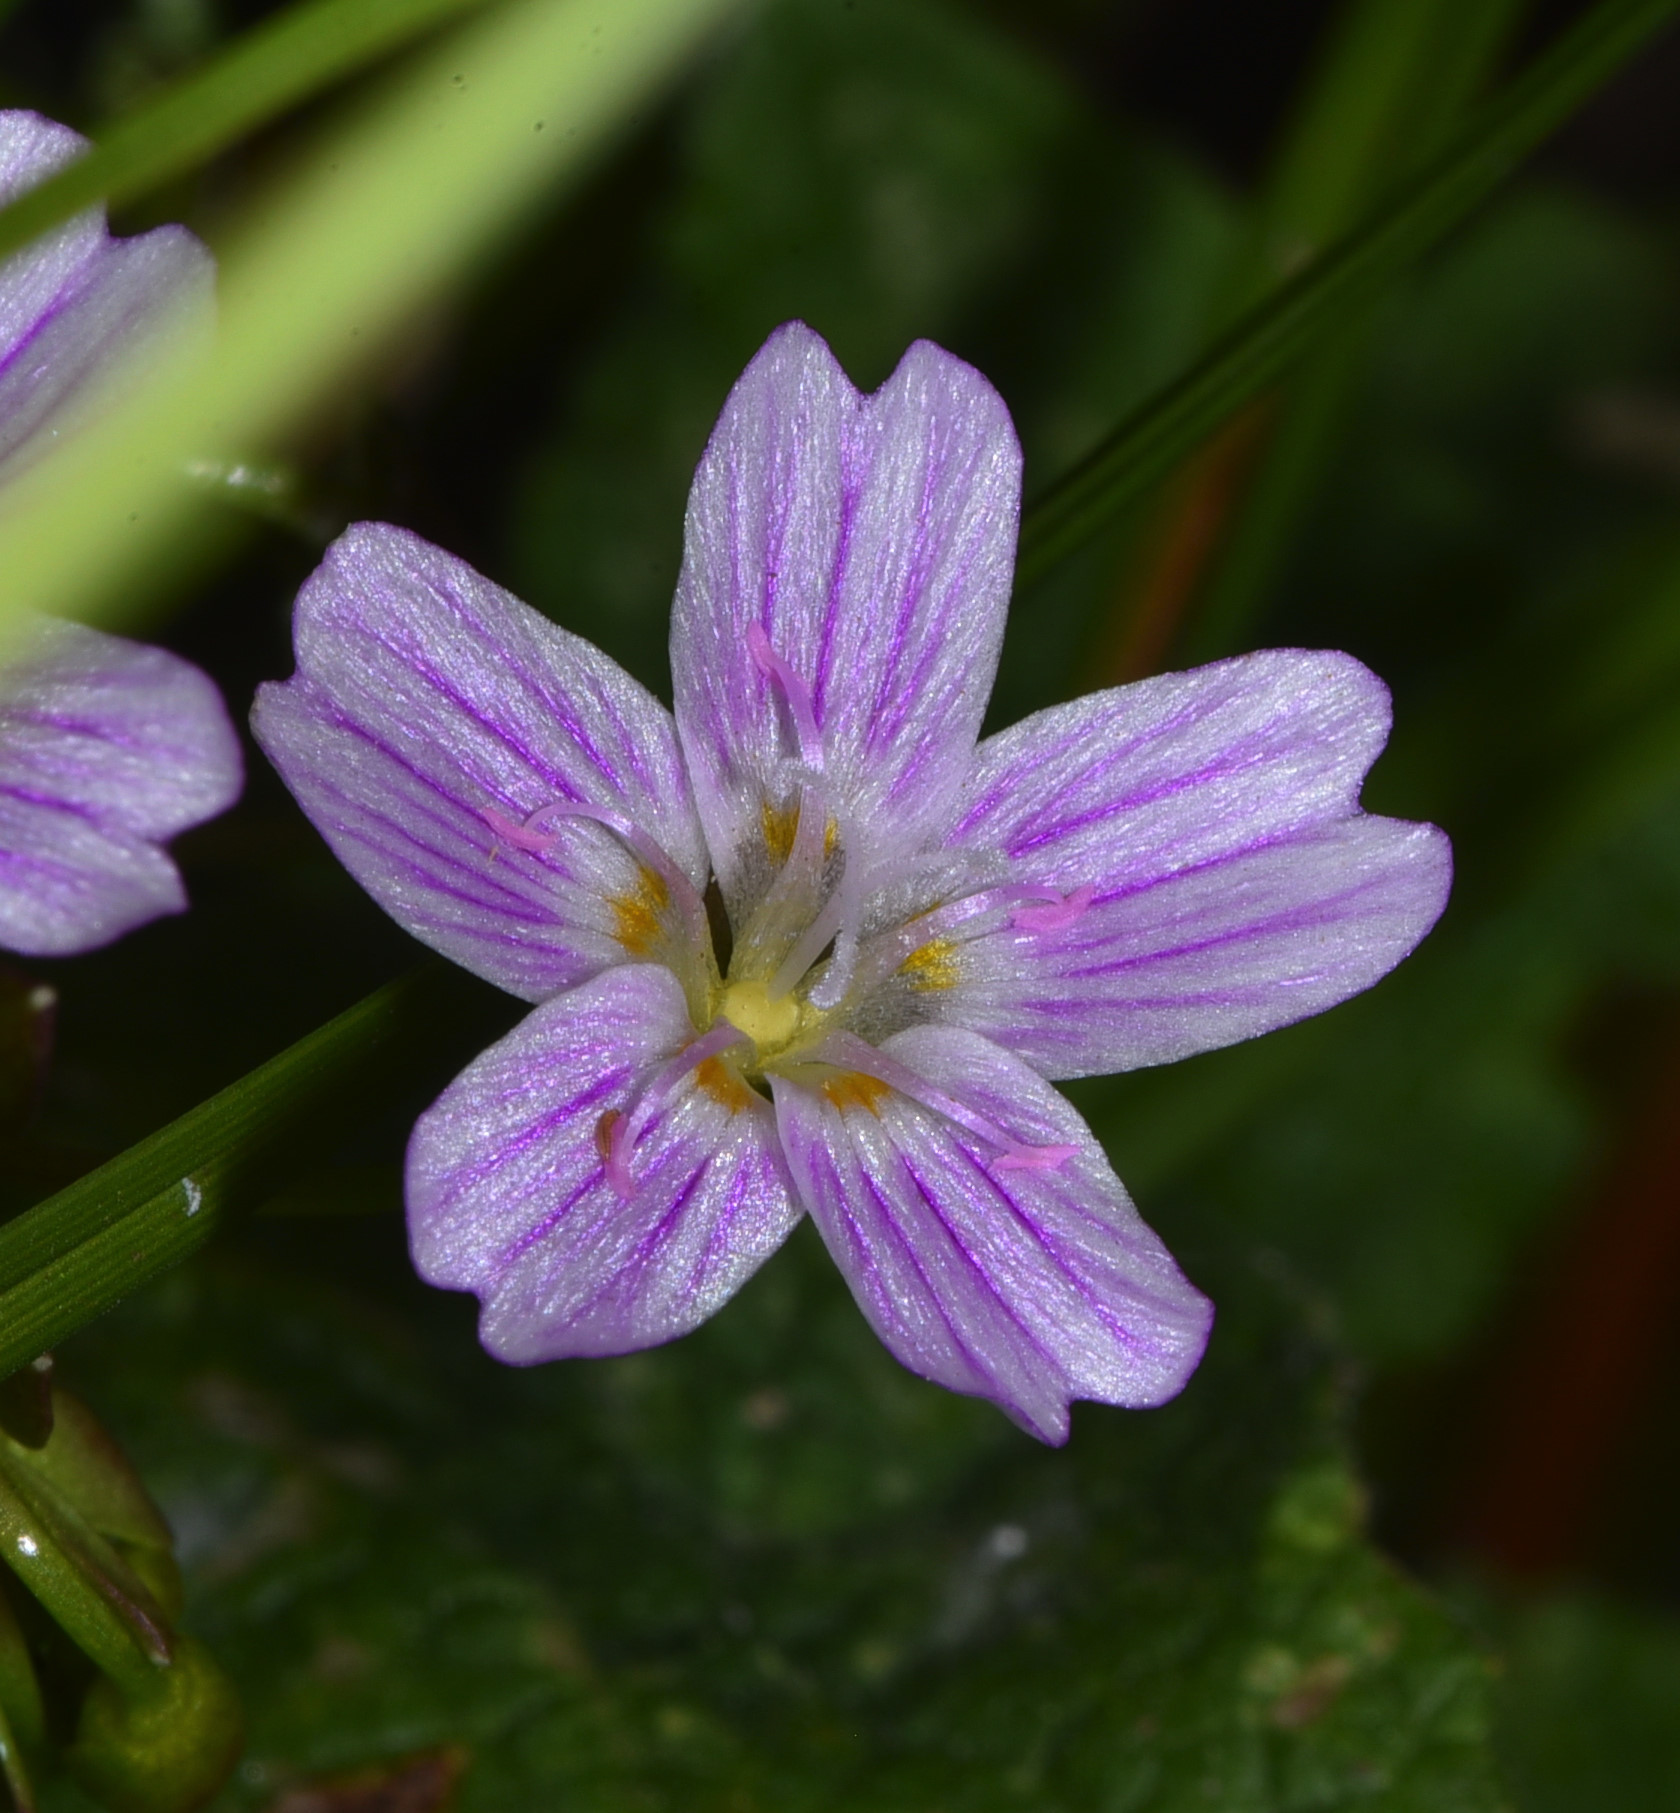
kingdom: Plantae
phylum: Tracheophyta
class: Magnoliopsida
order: Caryophyllales
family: Montiaceae
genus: Claytonia
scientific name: Claytonia sibirica
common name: Pink purslane
